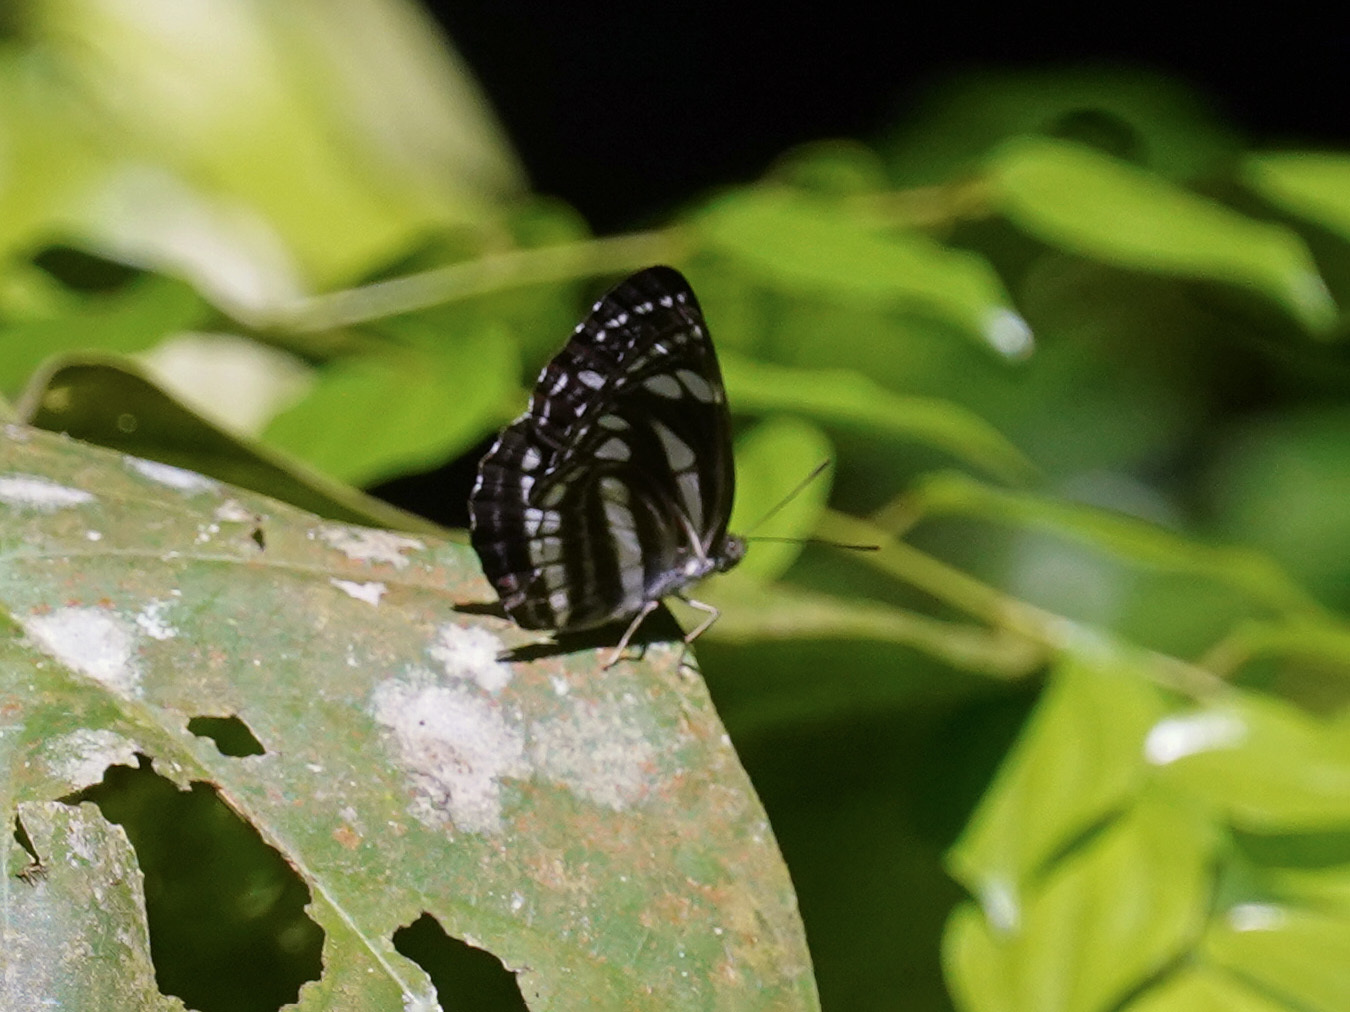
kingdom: Animalia
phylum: Arthropoda
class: Insecta
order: Lepidoptera
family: Nymphalidae
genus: Neptis
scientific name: Neptis leucoporos
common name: Grey sailer
